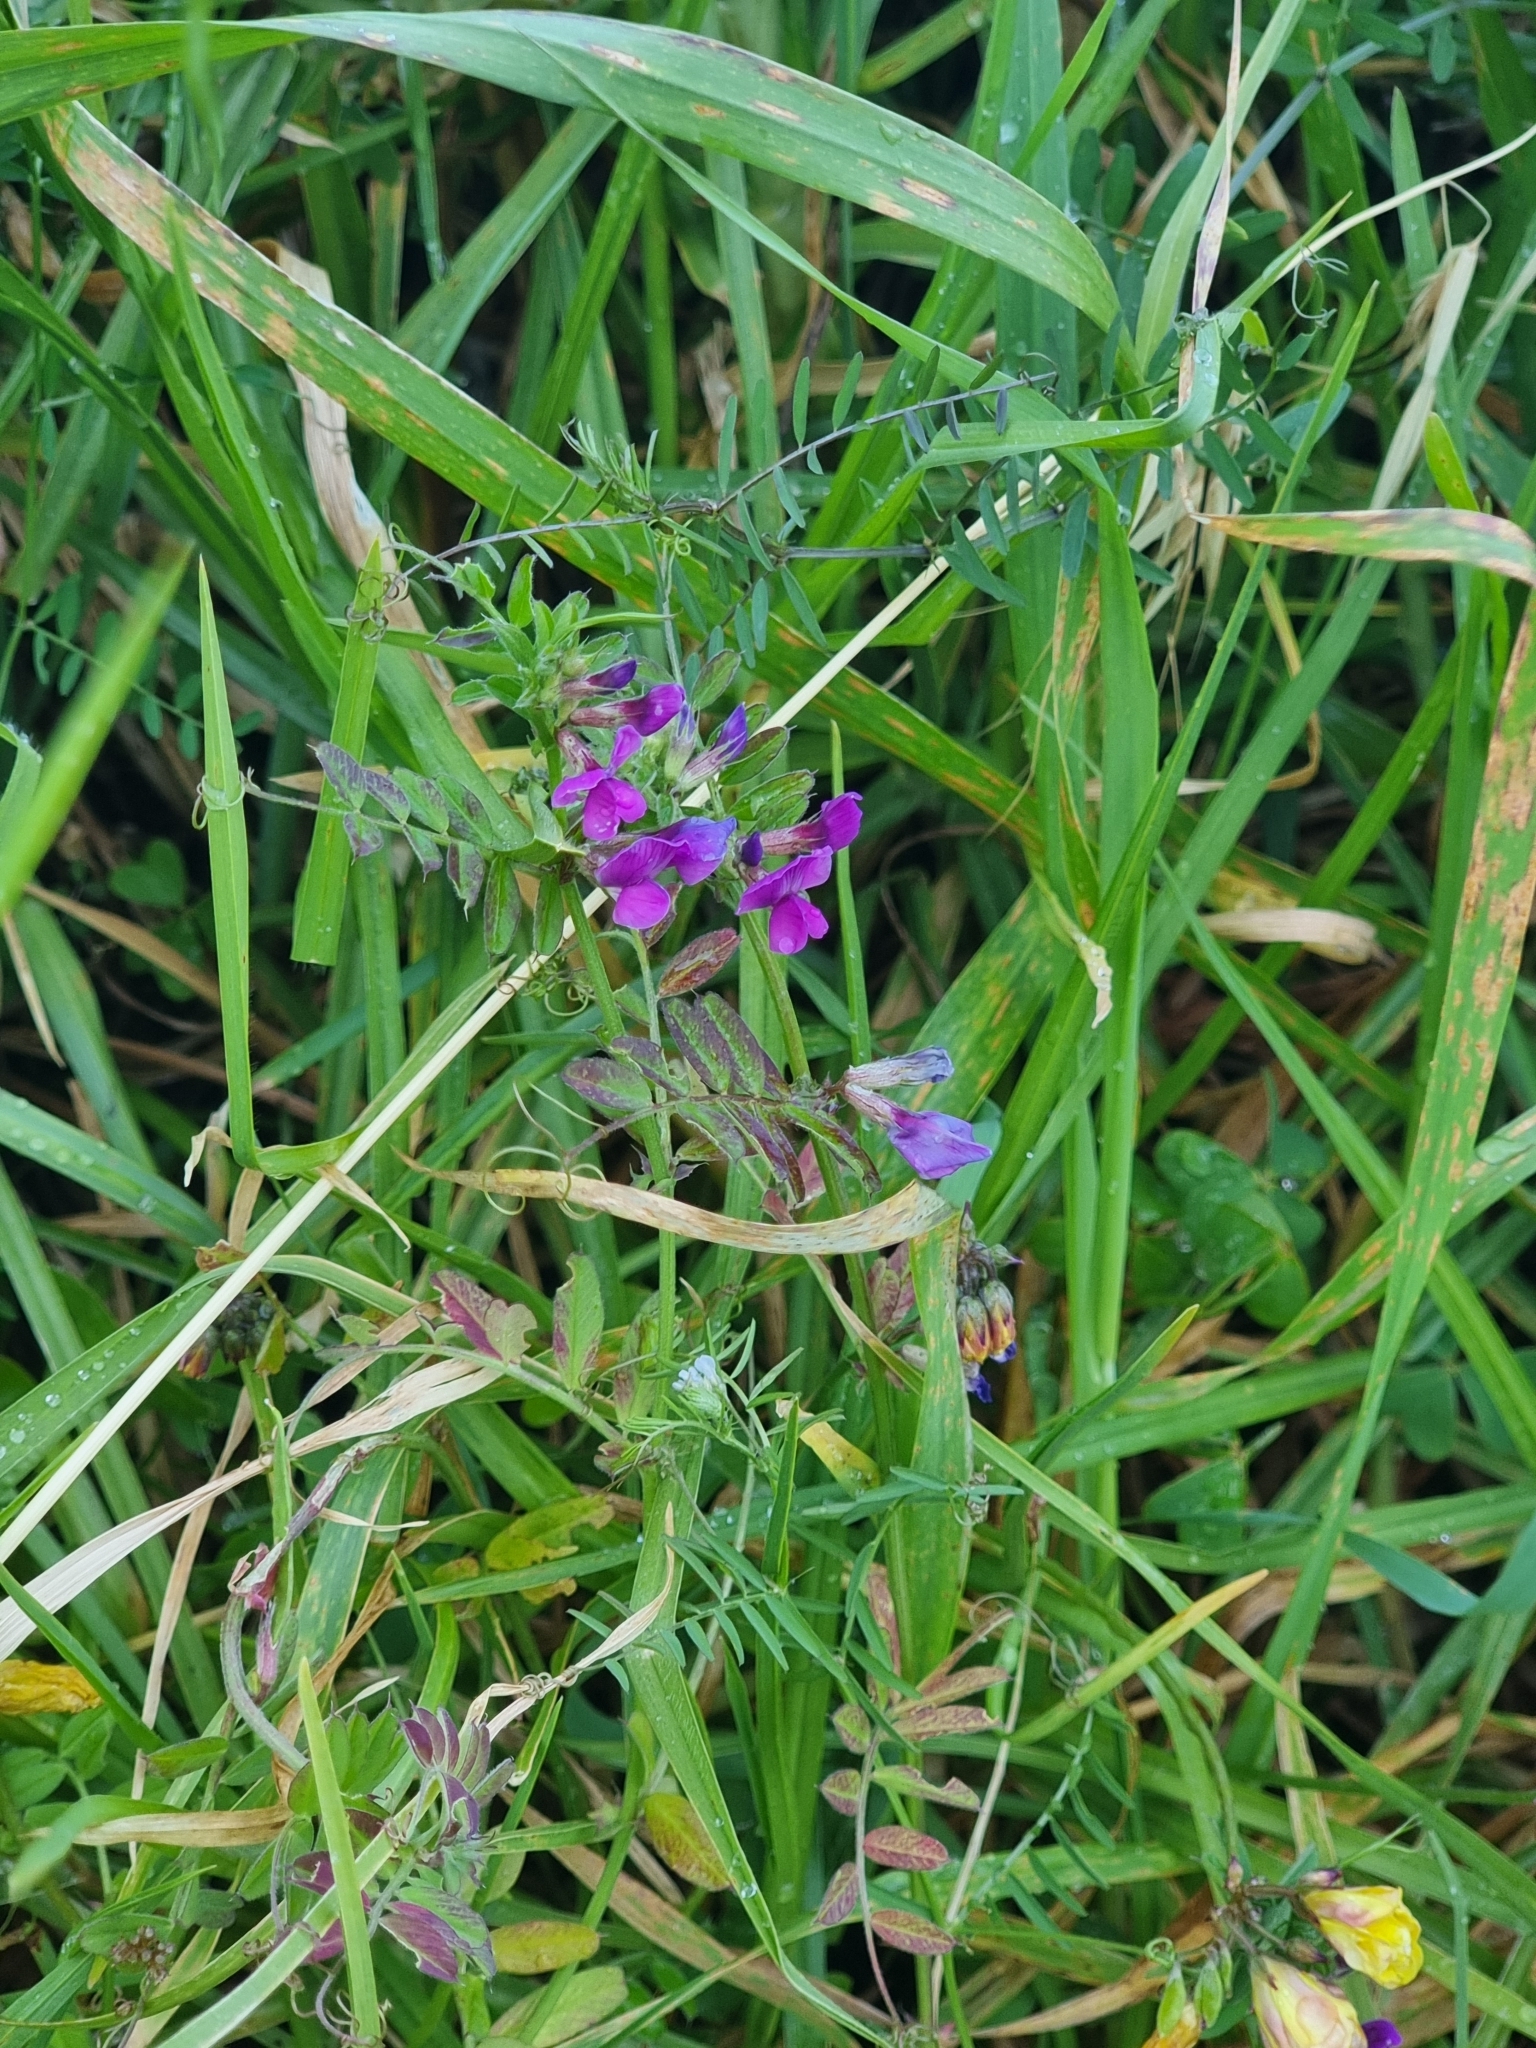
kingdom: Plantae
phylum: Tracheophyta
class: Magnoliopsida
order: Fabales
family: Fabaceae
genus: Vicia
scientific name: Vicia sativa
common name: Garden vetch
